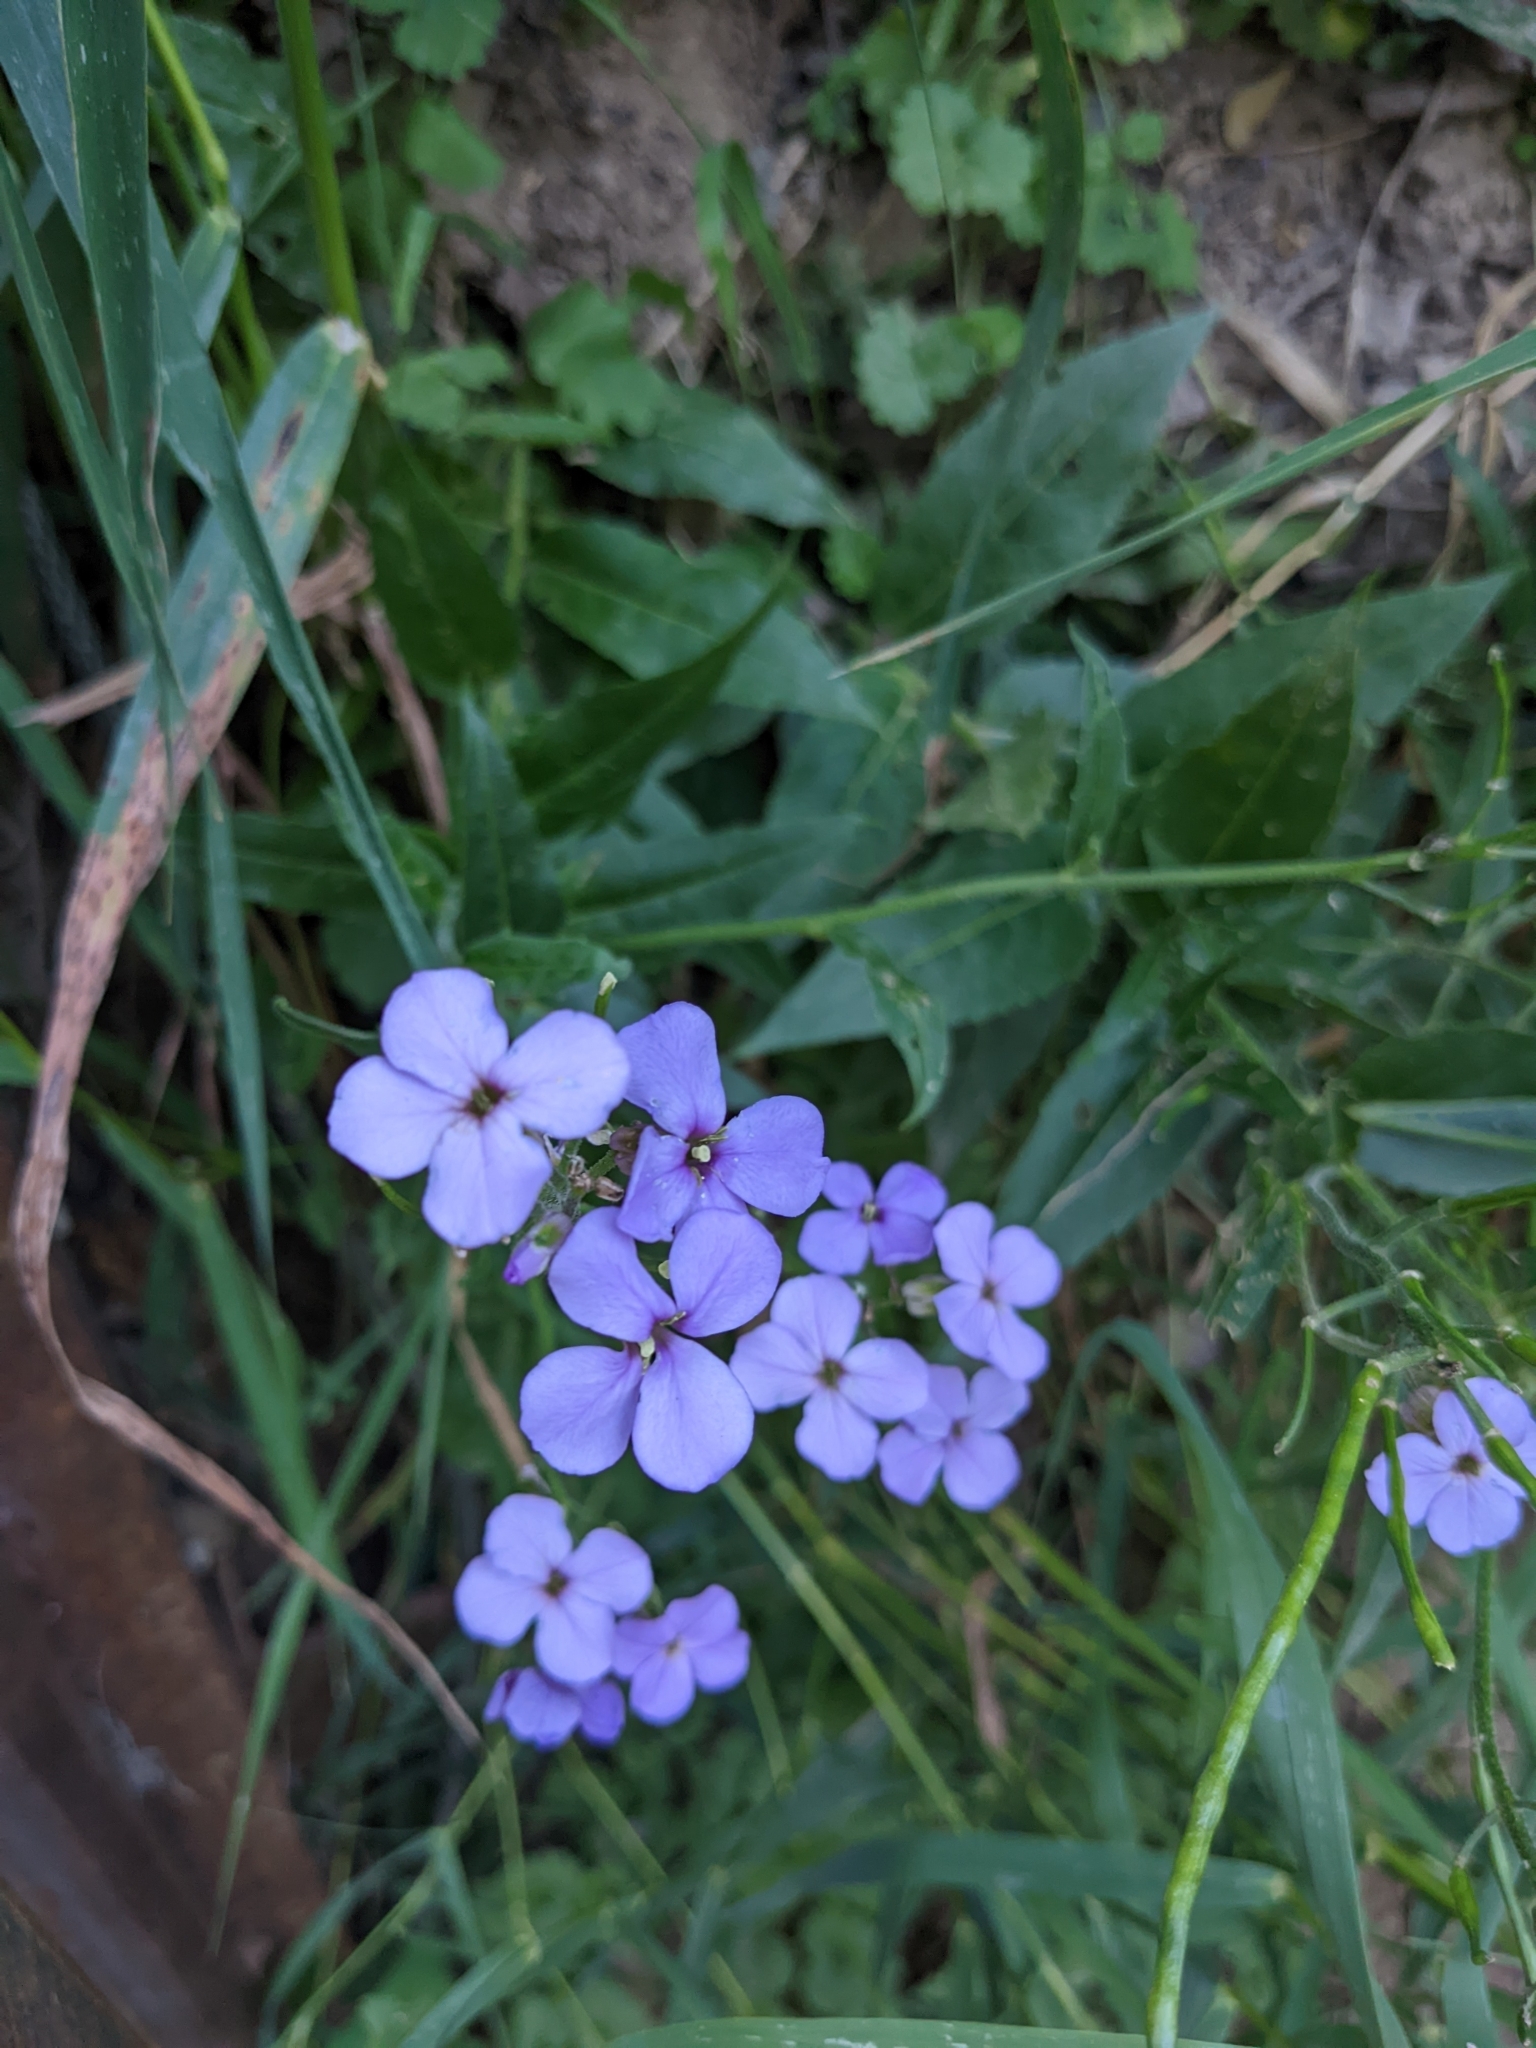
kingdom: Plantae
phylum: Tracheophyta
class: Magnoliopsida
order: Brassicales
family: Brassicaceae
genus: Hesperis
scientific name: Hesperis matronalis
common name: Dame's-violet
